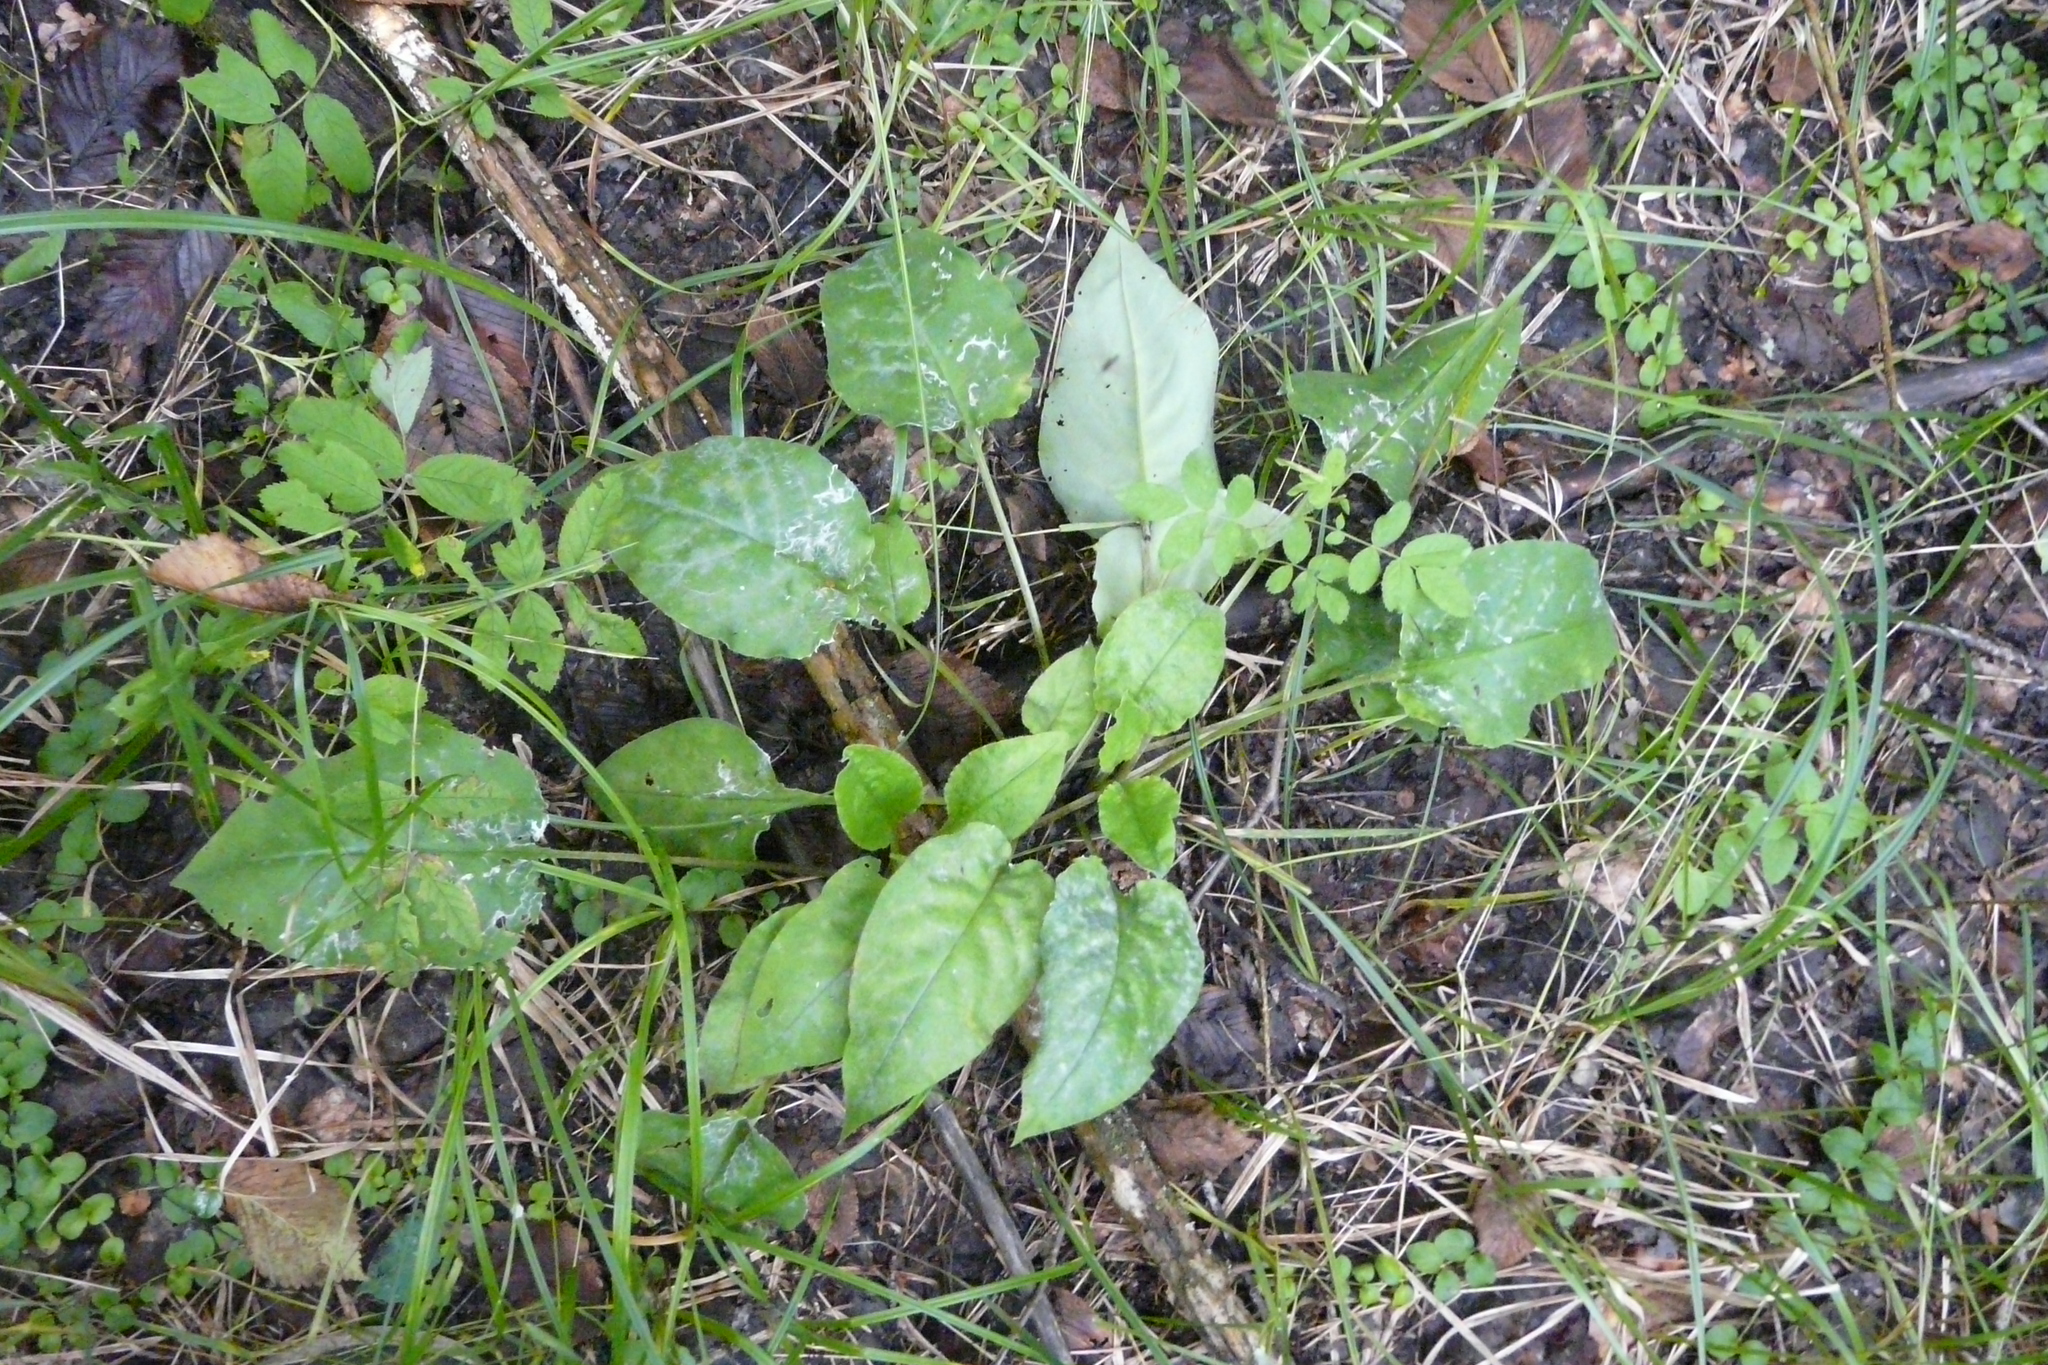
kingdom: Plantae
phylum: Tracheophyta
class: Magnoliopsida
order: Boraginales
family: Boraginaceae
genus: Pulmonaria
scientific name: Pulmonaria obscura
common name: Suffolk lungwort
